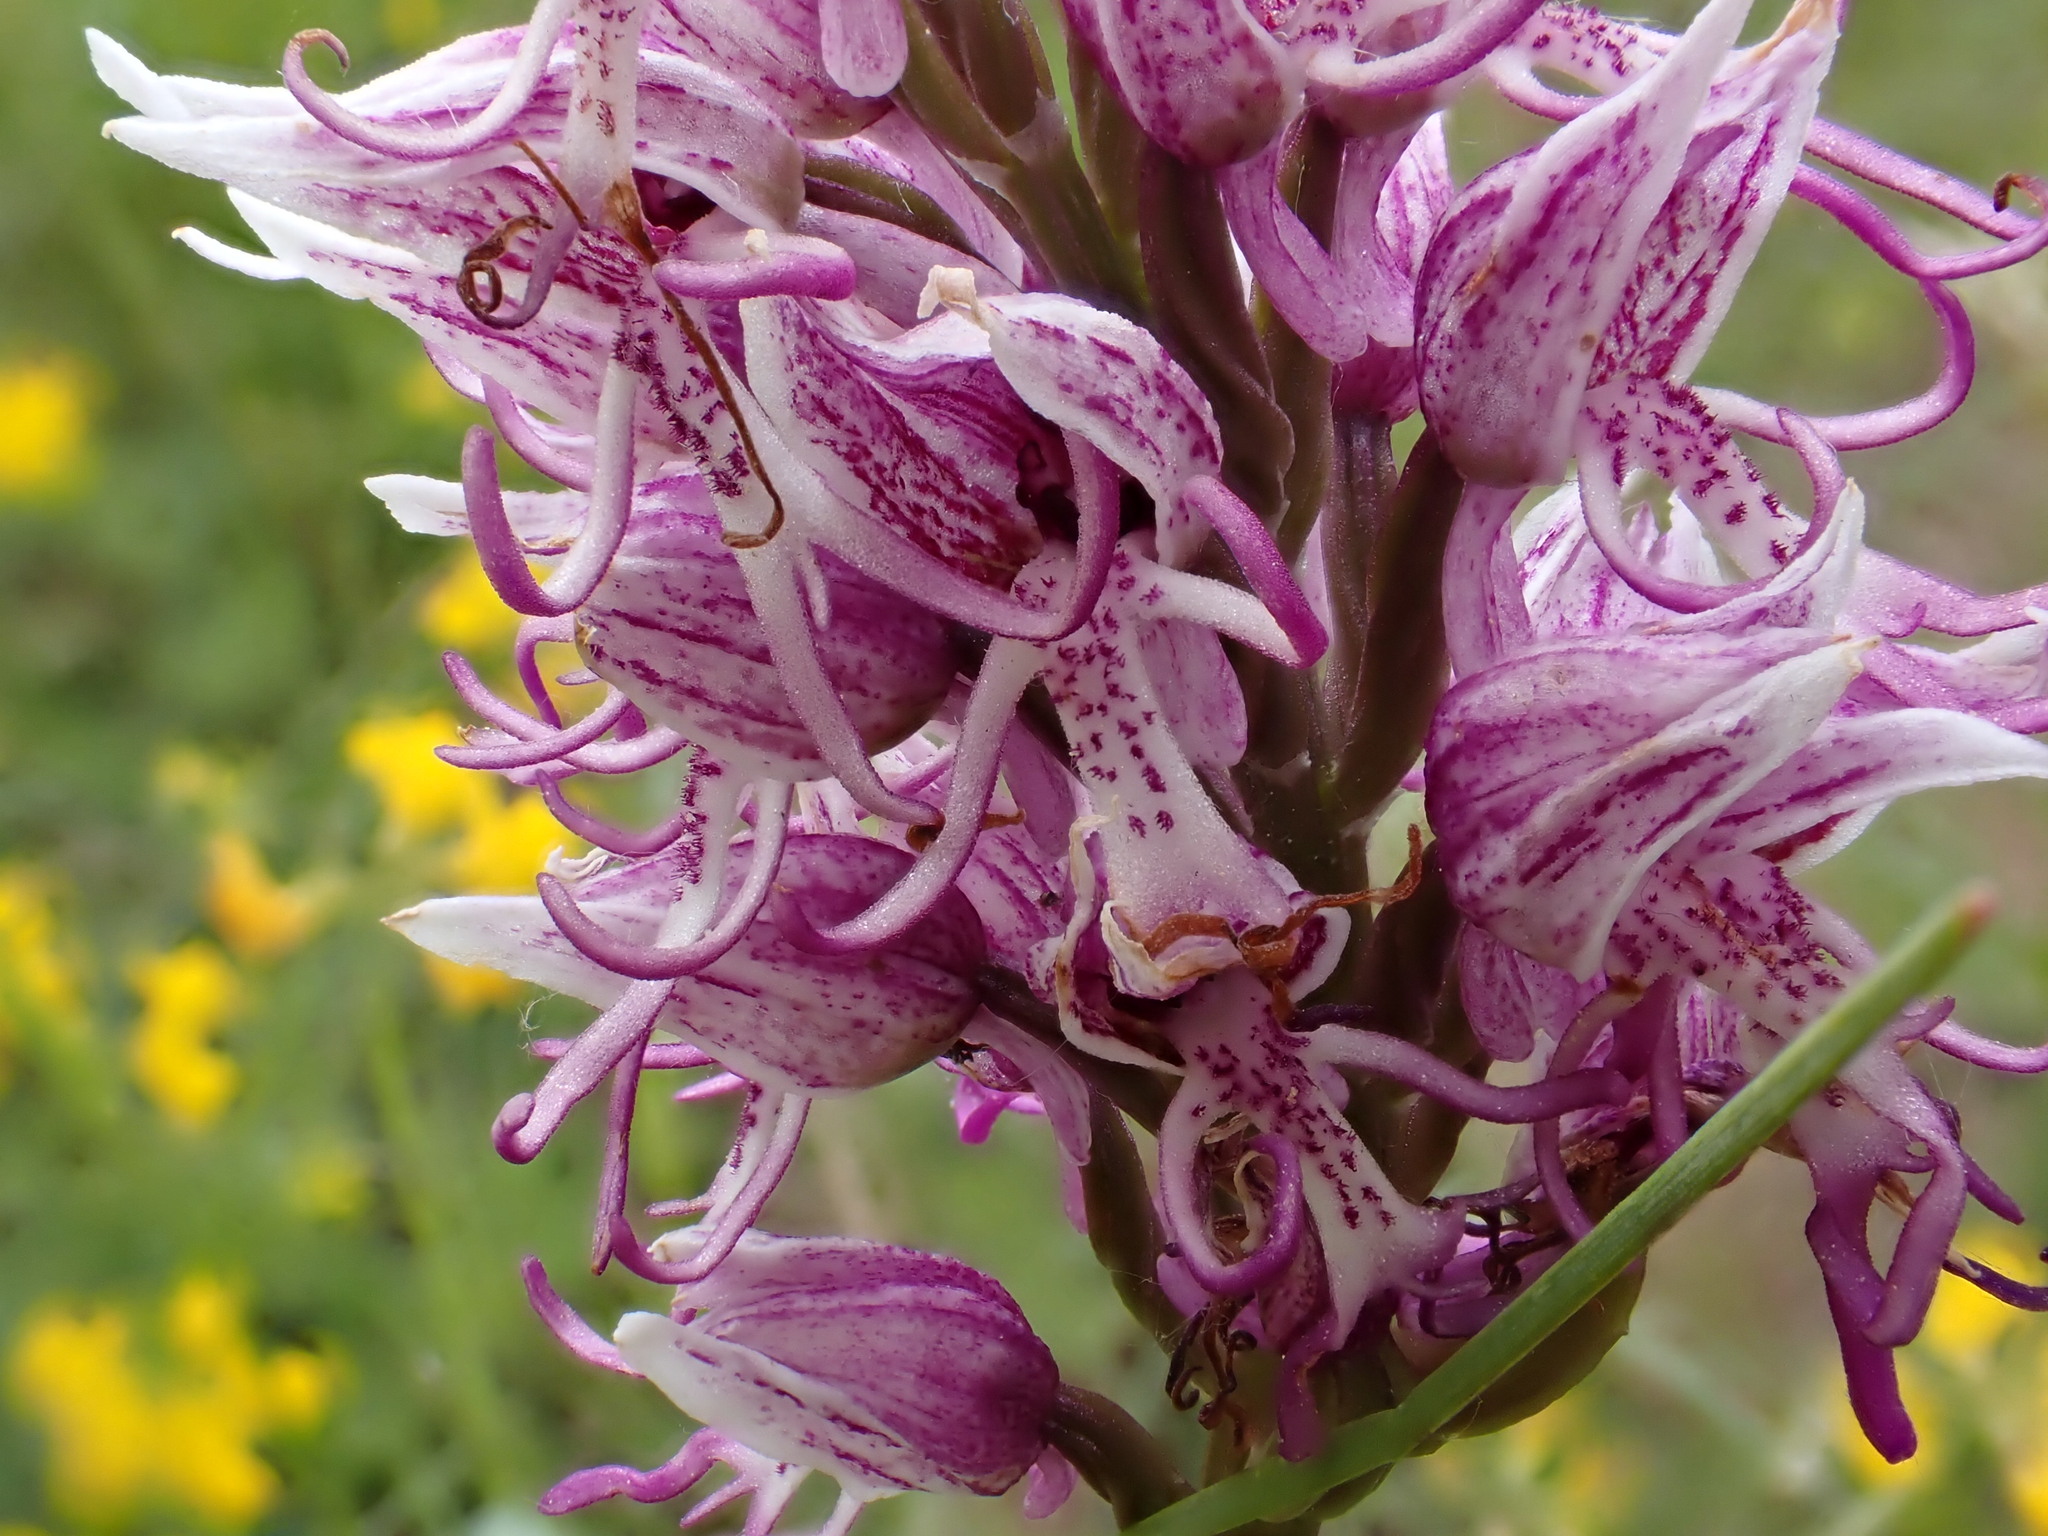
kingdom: Plantae
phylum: Tracheophyta
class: Liliopsida
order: Asparagales
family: Orchidaceae
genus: Orchis
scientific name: Orchis simia
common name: Monkey orchid
